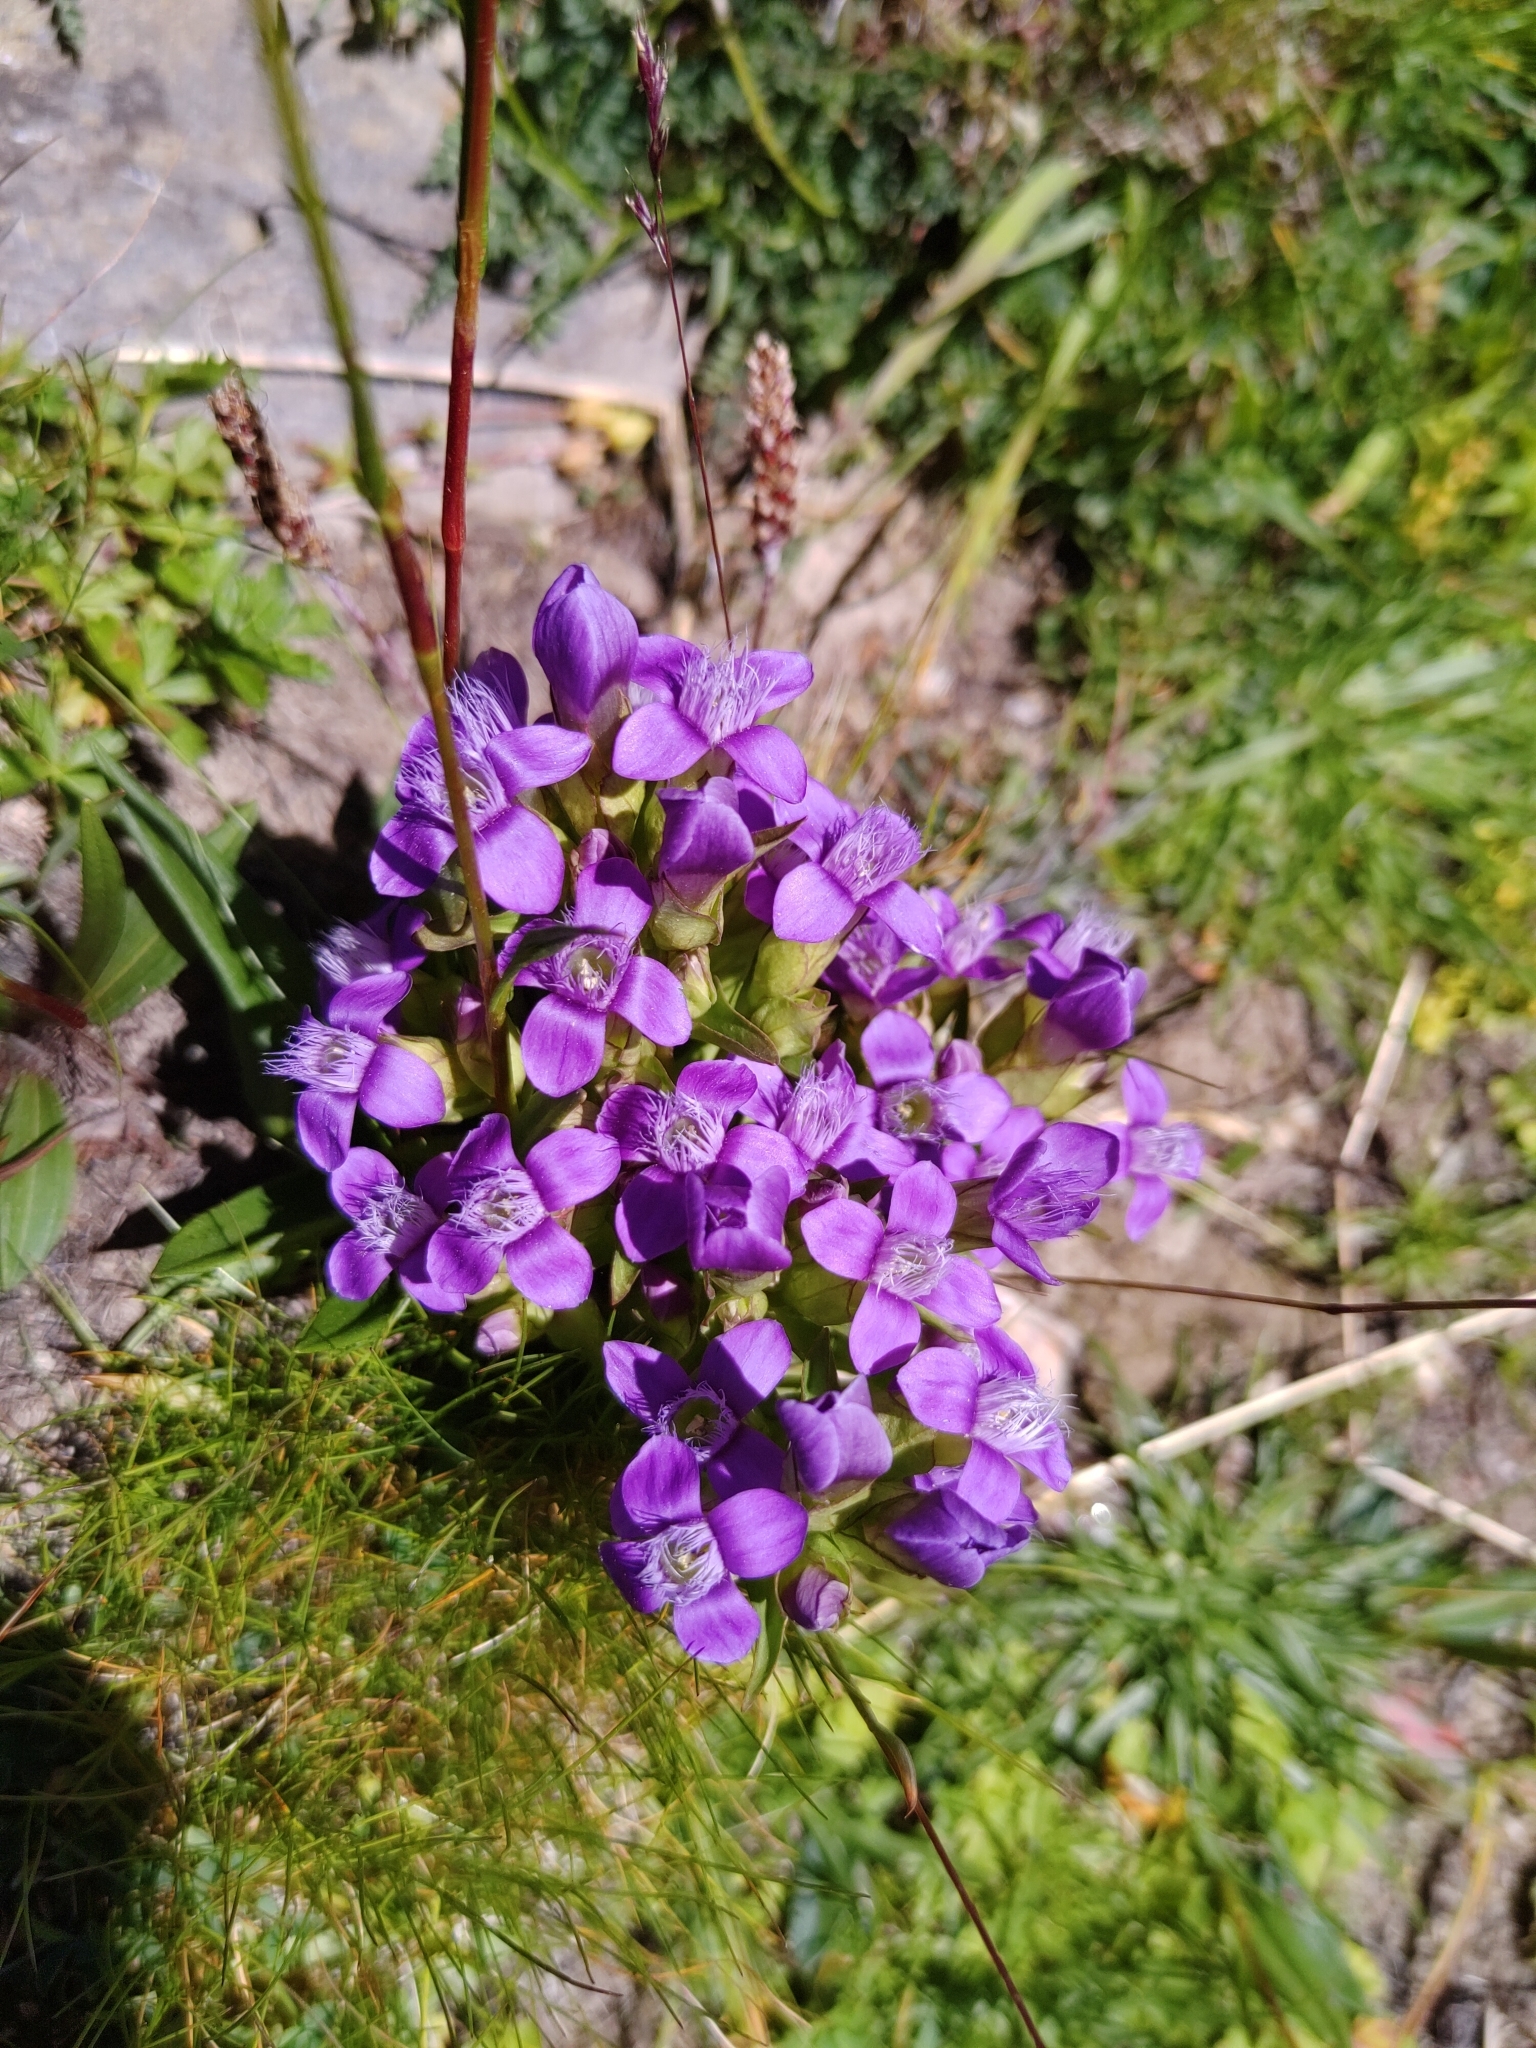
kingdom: Plantae
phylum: Tracheophyta
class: Magnoliopsida
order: Gentianales
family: Gentianaceae
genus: Gentianella
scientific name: Gentianella campestris
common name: Field gentian
